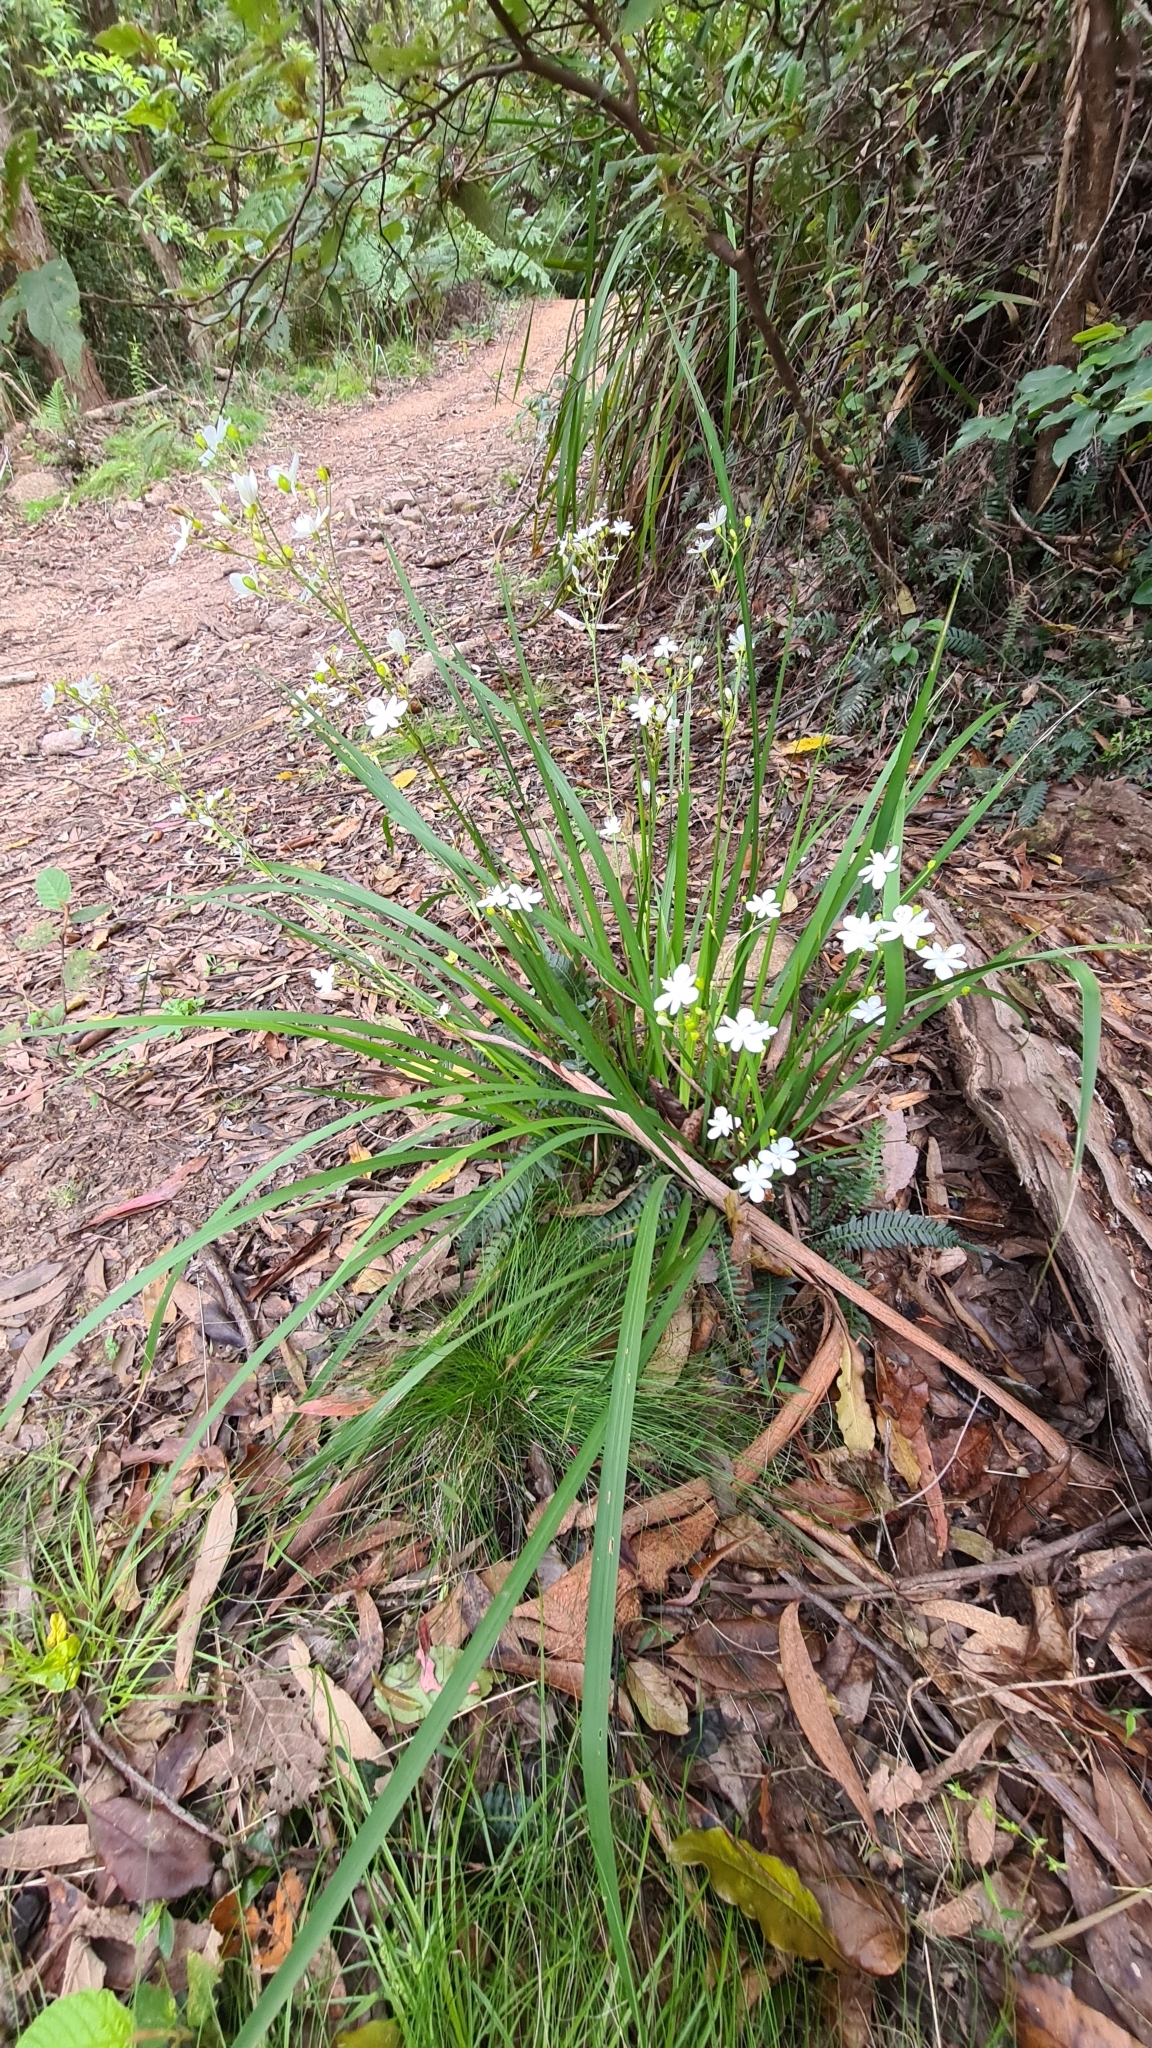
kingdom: Plantae
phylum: Tracheophyta
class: Liliopsida
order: Asparagales
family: Iridaceae
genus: Libertia
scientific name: Libertia paniculata
